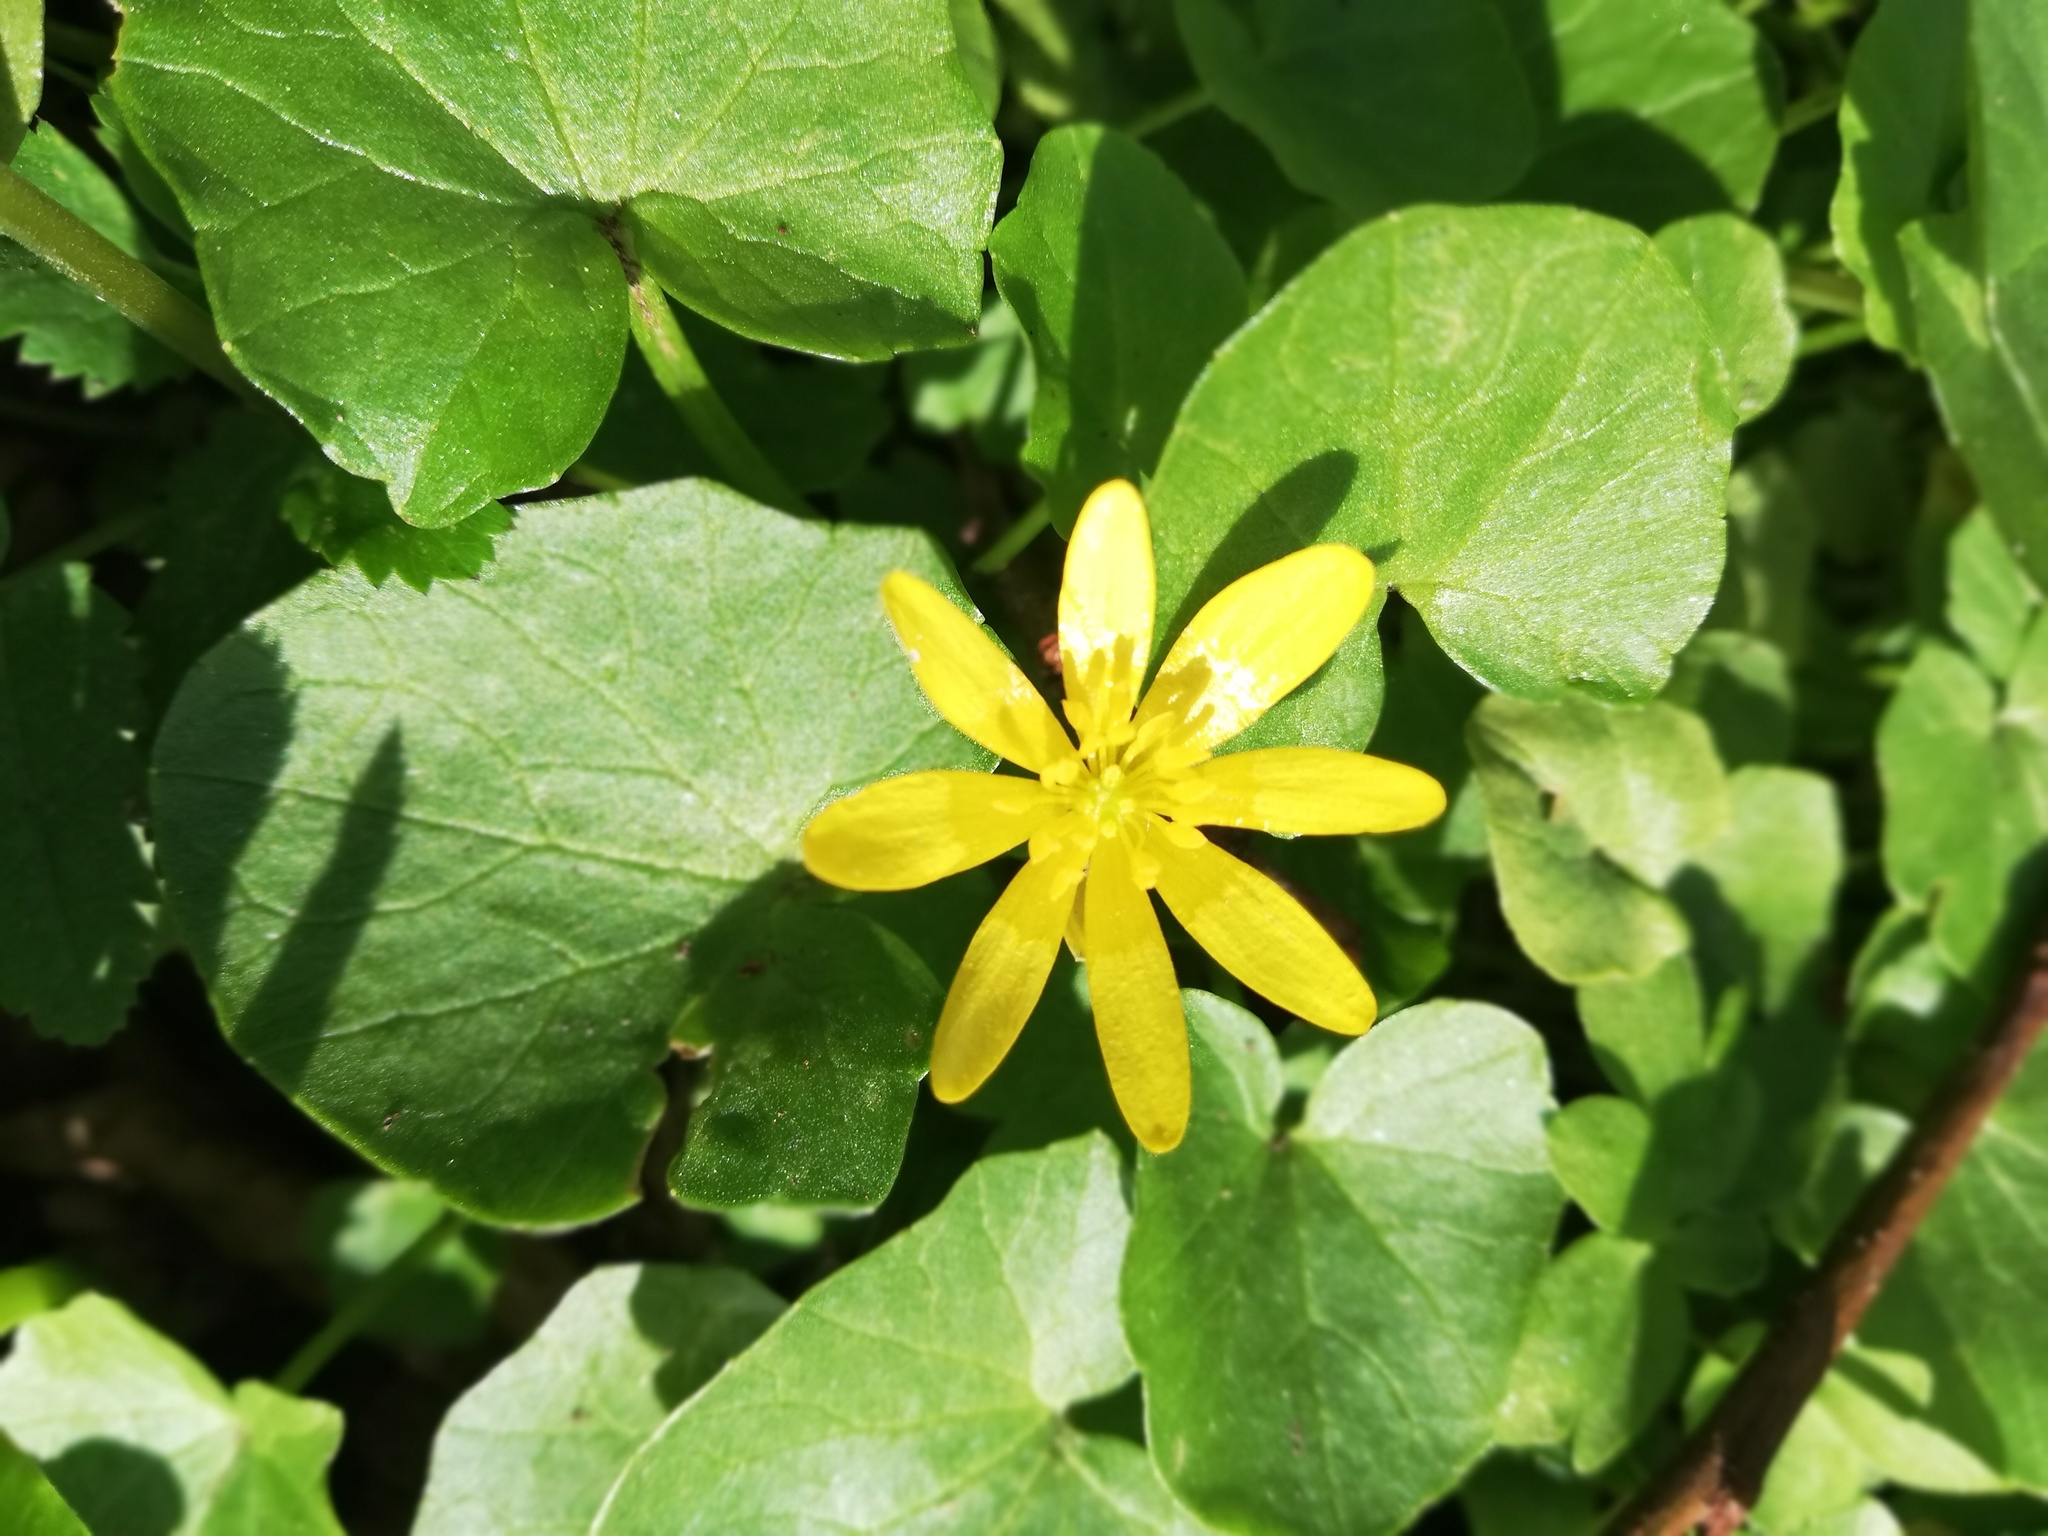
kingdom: Plantae
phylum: Tracheophyta
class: Magnoliopsida
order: Ranunculales
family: Ranunculaceae
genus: Ficaria
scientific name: Ficaria verna
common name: Lesser celandine
